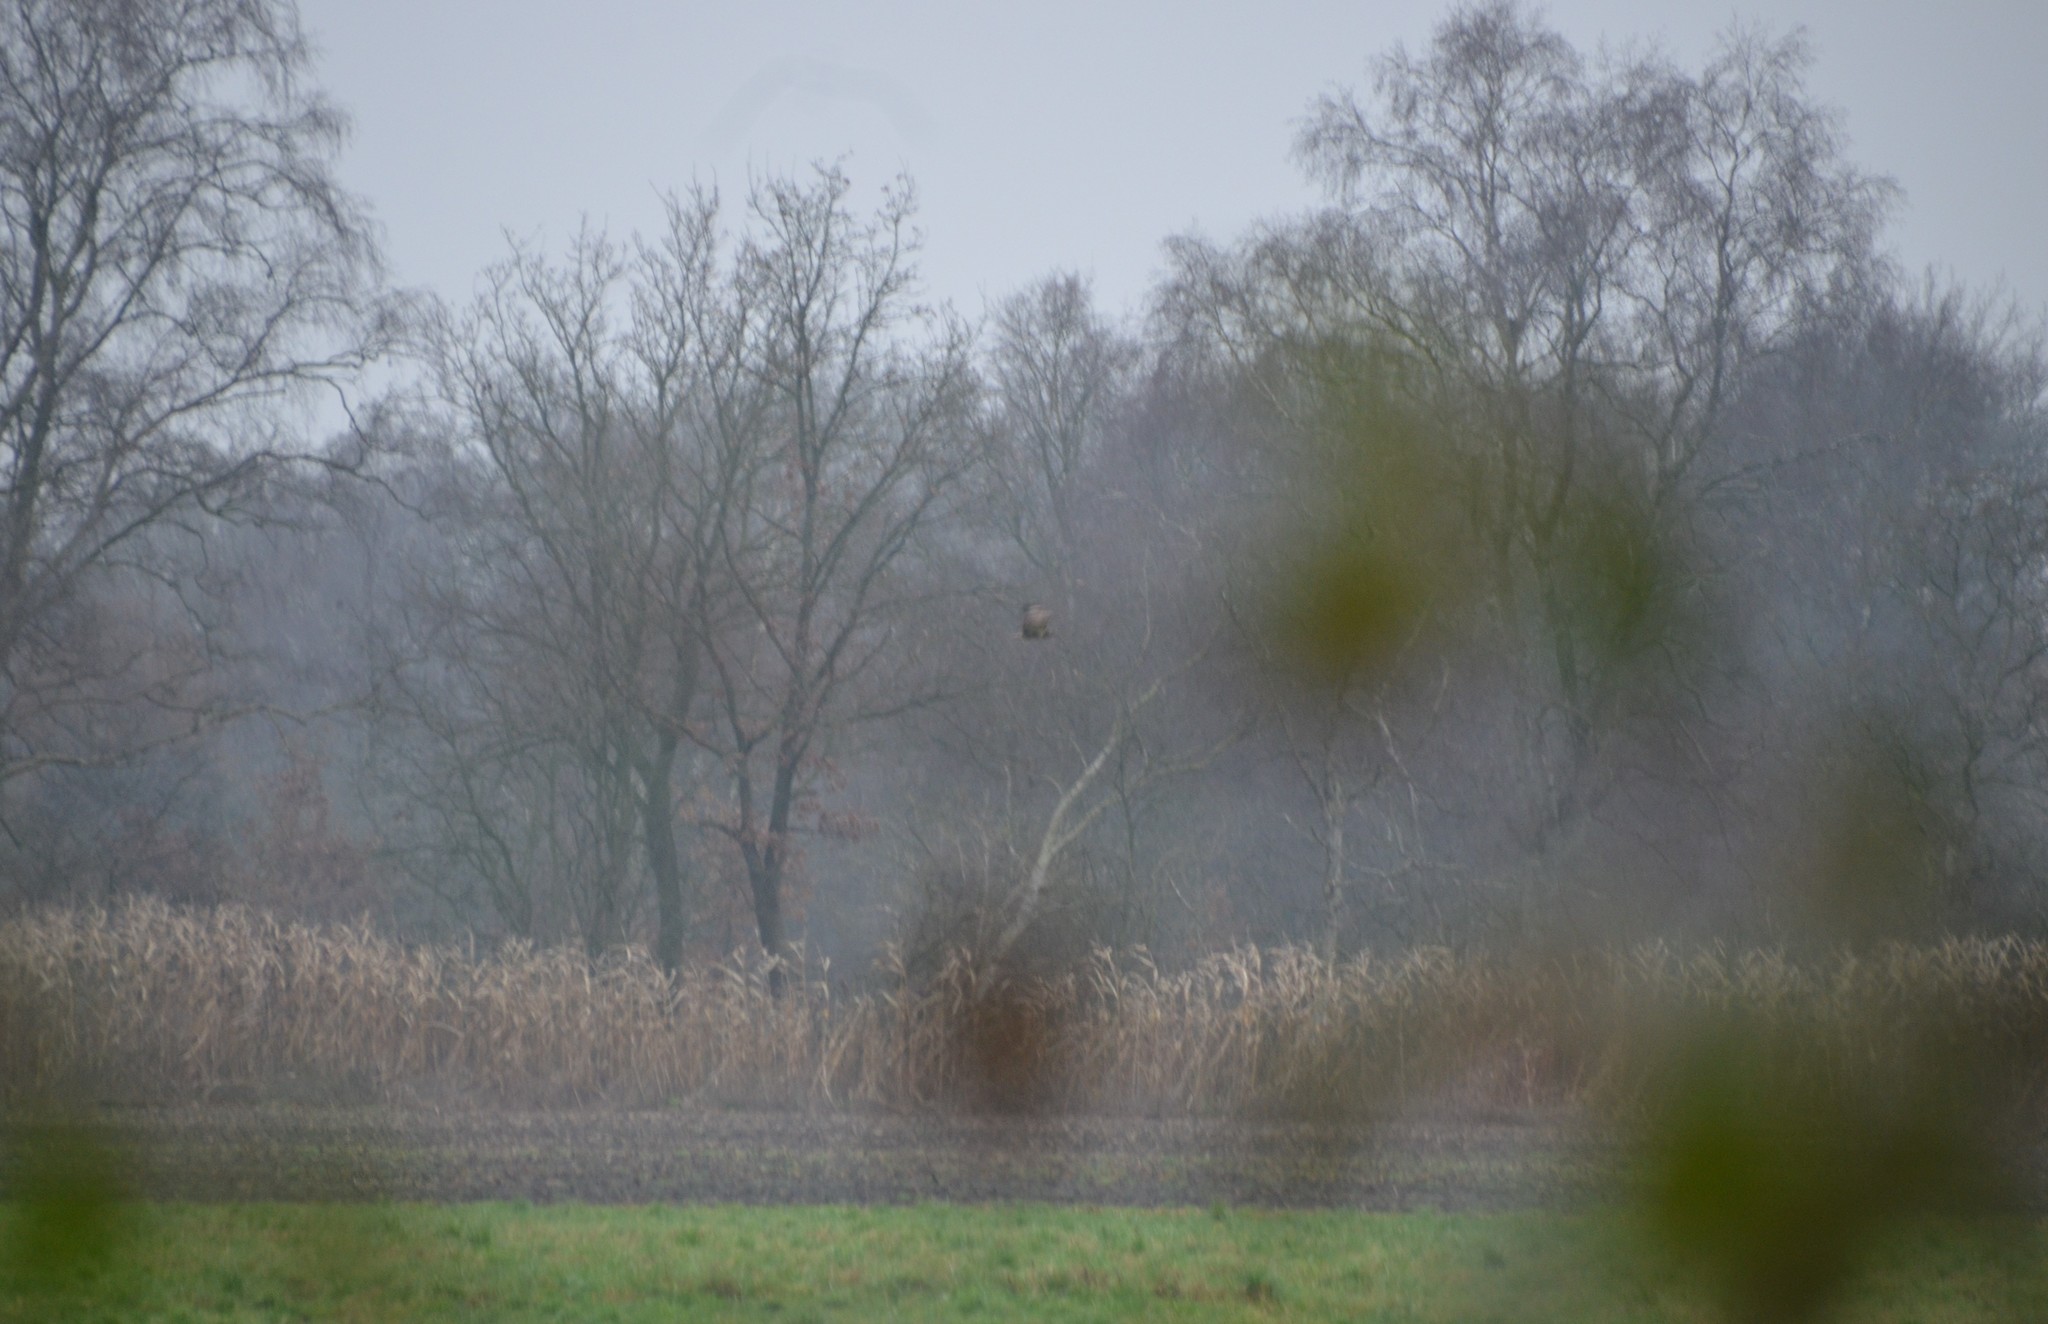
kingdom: Animalia
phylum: Chordata
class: Aves
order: Accipitriformes
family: Accipitridae
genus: Buteo
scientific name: Buteo buteo
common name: Common buzzard
